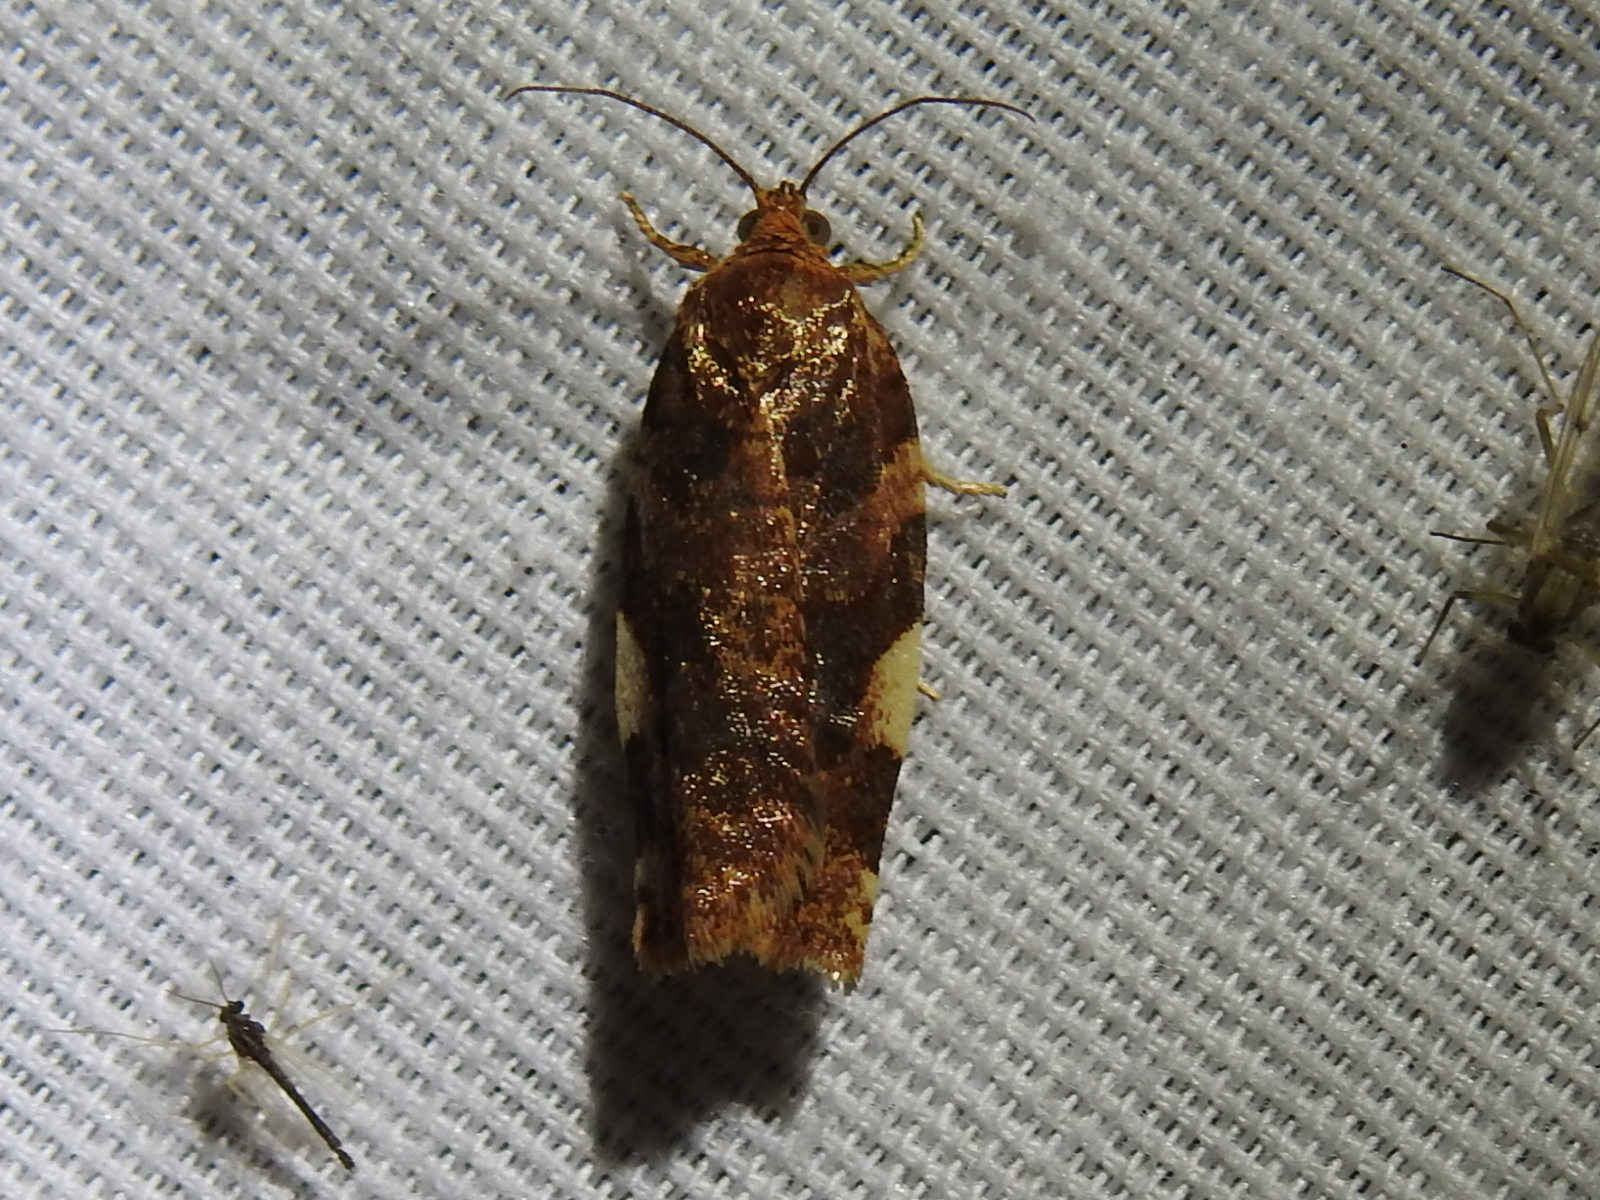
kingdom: Animalia
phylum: Arthropoda
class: Insecta
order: Lepidoptera
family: Tortricidae
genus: Archips
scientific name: Archips argyrospila
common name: Fruit-tree leafroller moth
